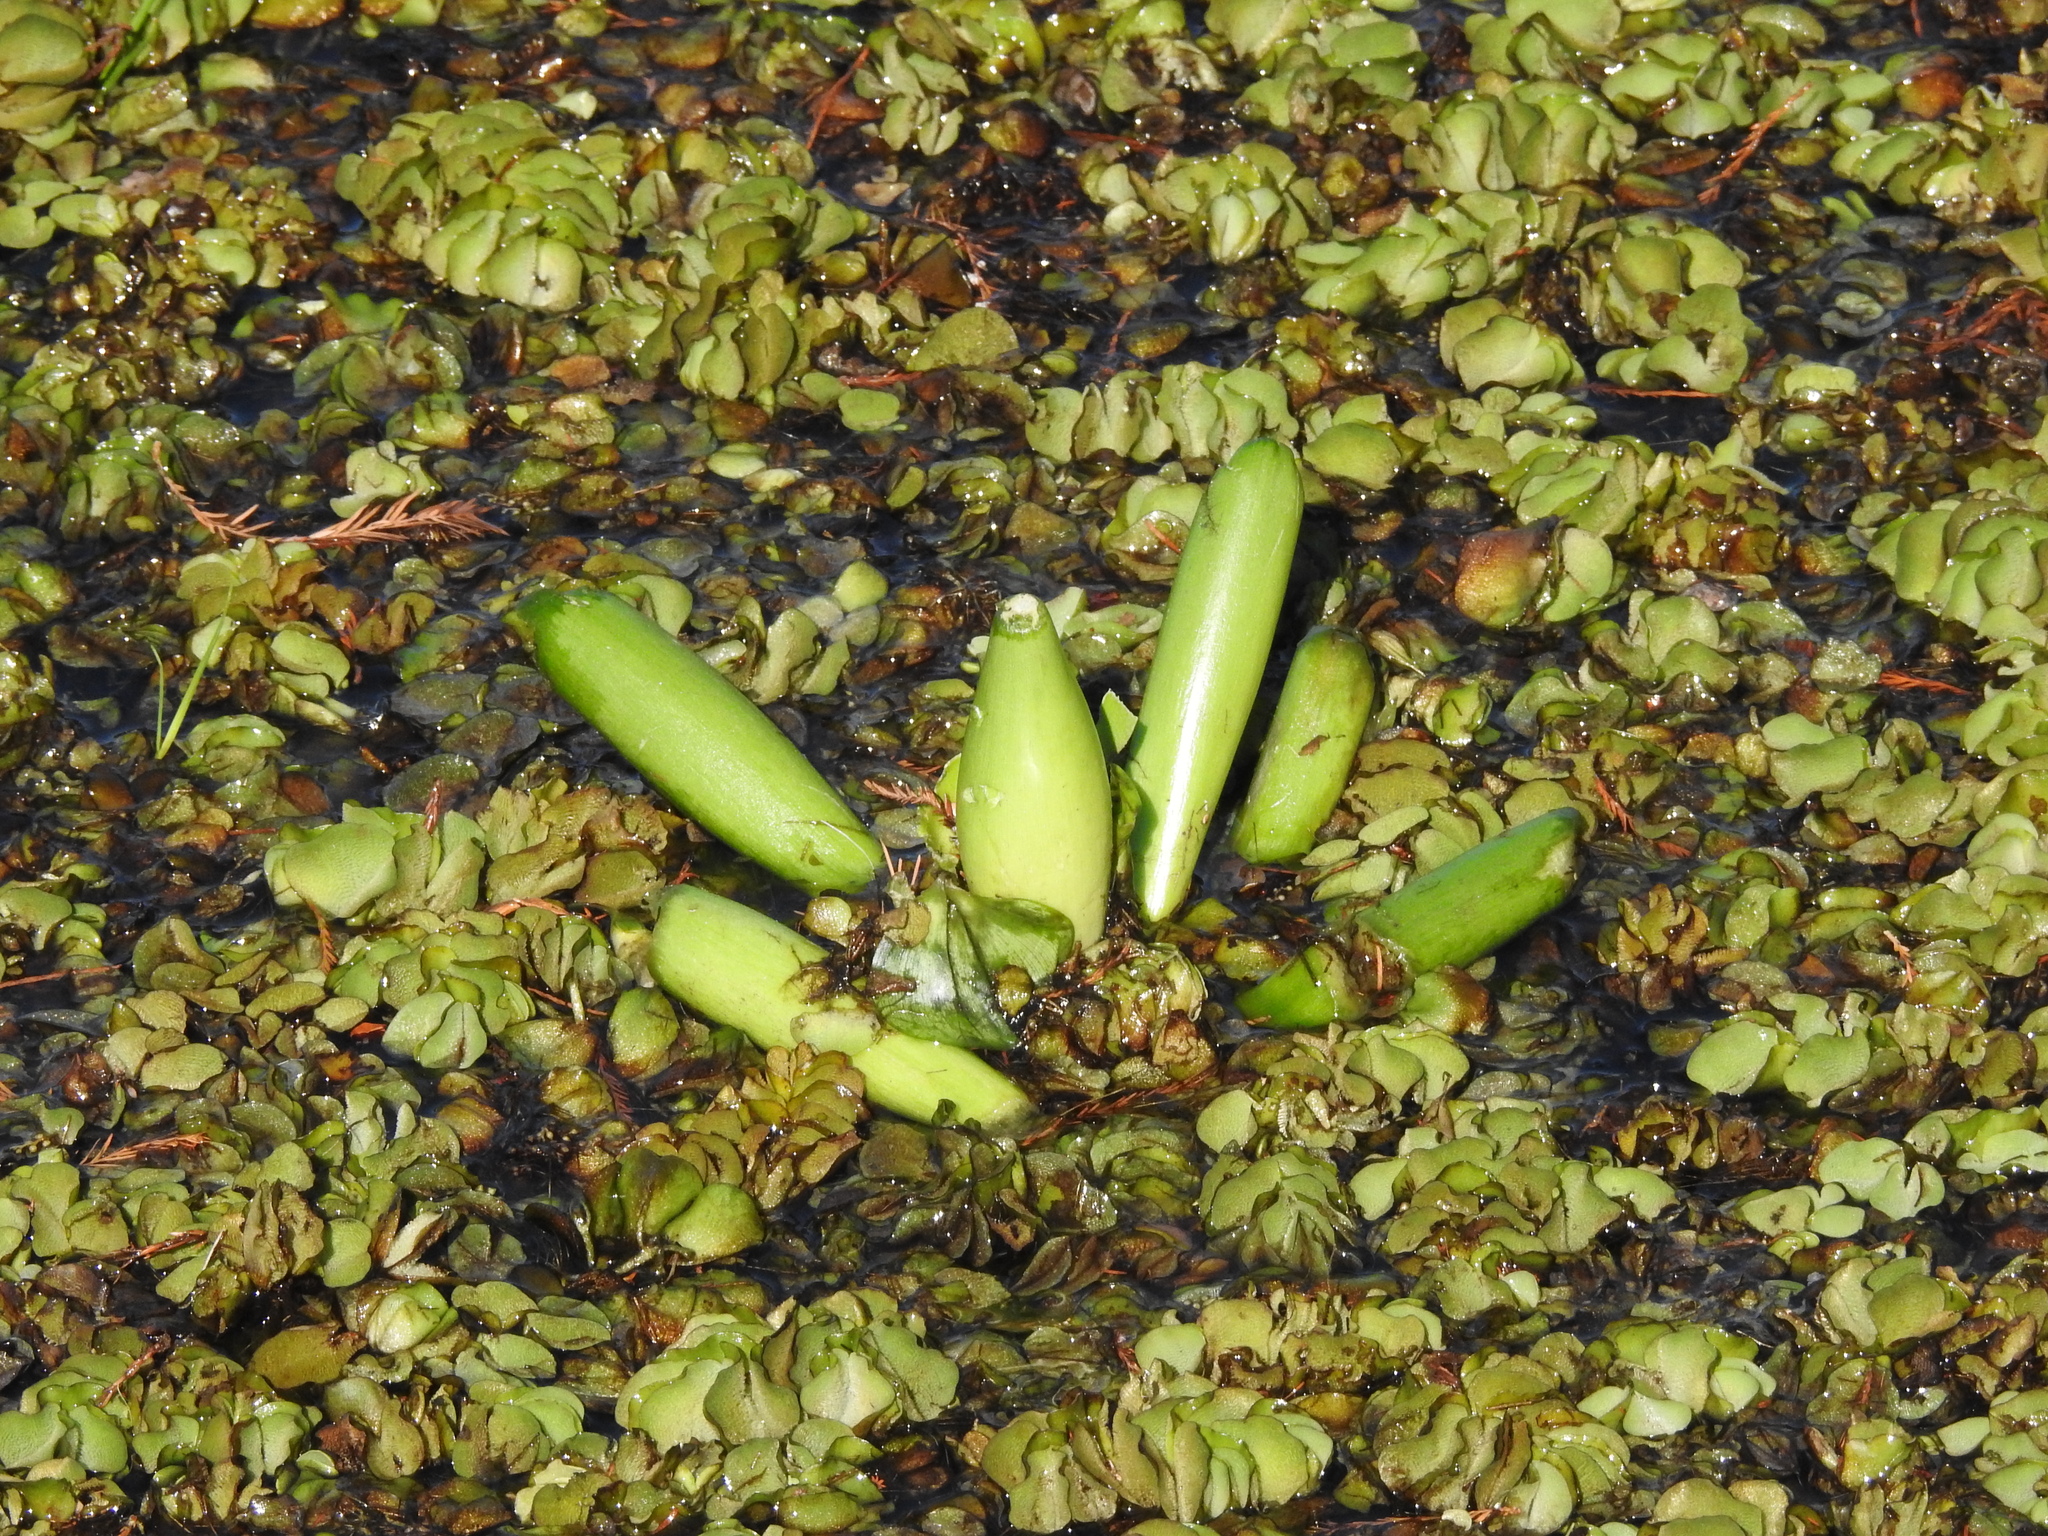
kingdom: Plantae
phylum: Tracheophyta
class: Liliopsida
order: Commelinales
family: Pontederiaceae
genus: Pontederia
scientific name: Pontederia crassipes
